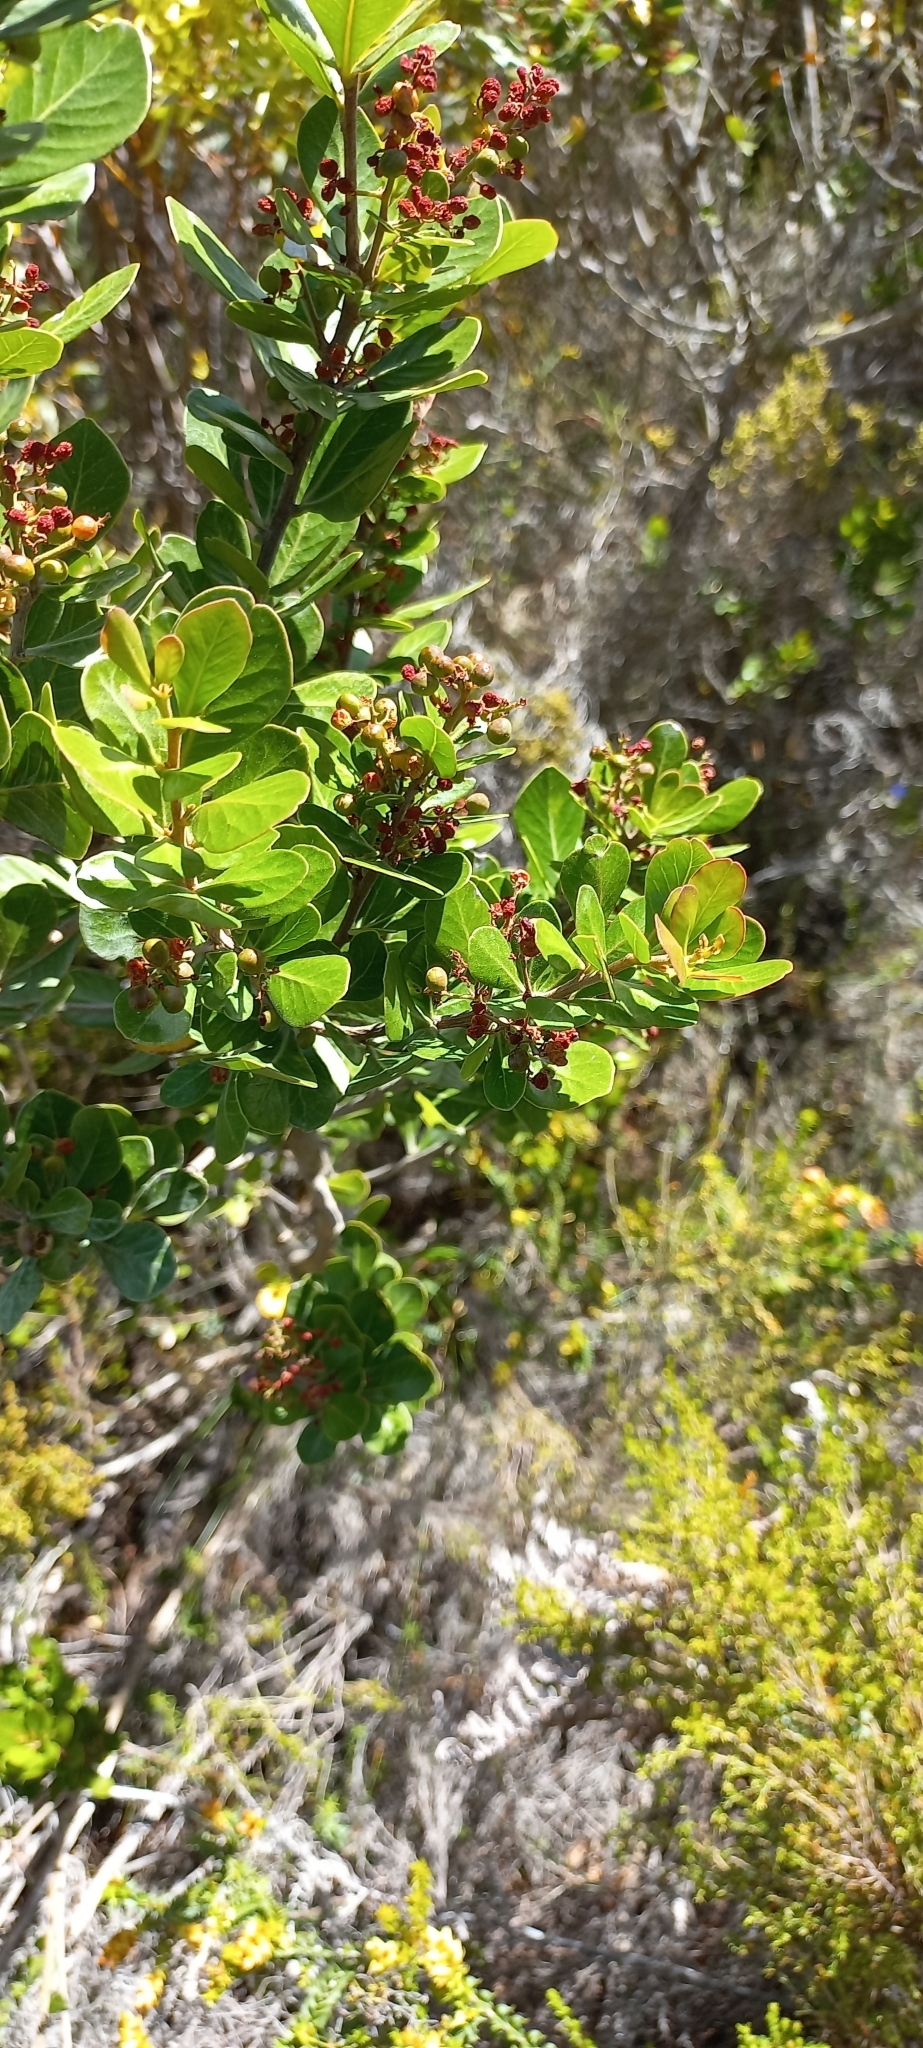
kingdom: Plantae
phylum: Tracheophyta
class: Magnoliopsida
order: Sapindales
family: Anacardiaceae
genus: Searsia
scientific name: Searsia lucida
